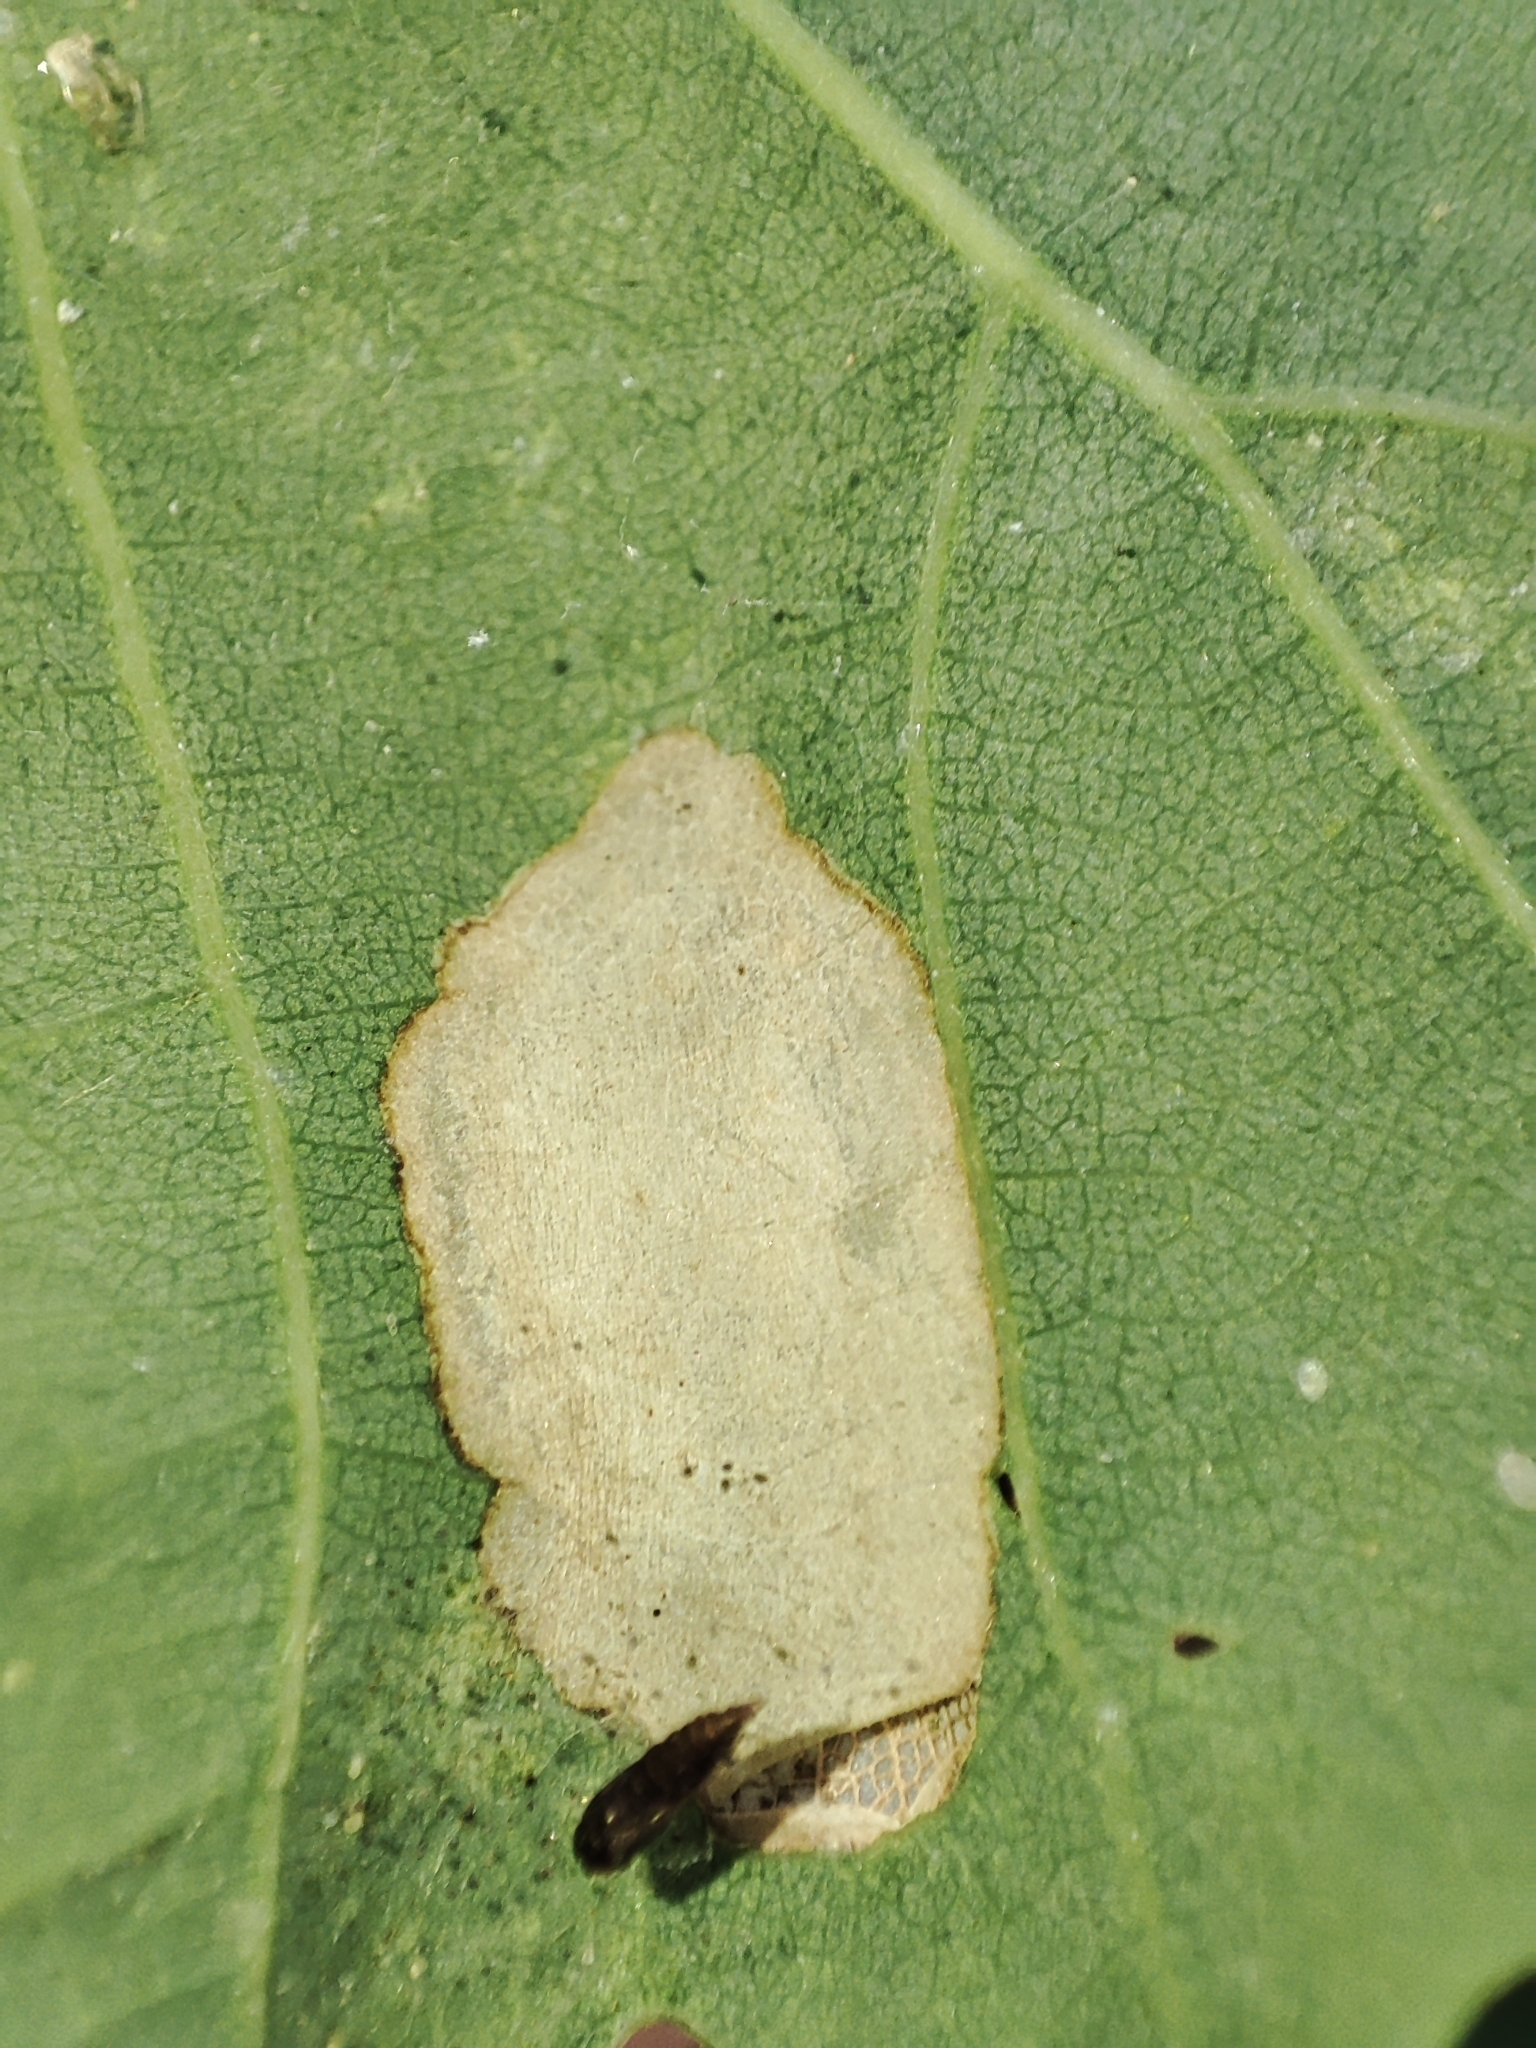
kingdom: Plantae
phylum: Tracheophyta
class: Magnoliopsida
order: Fagales
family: Fagaceae
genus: Quercus
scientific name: Quercus robur
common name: Pedunculate oak
